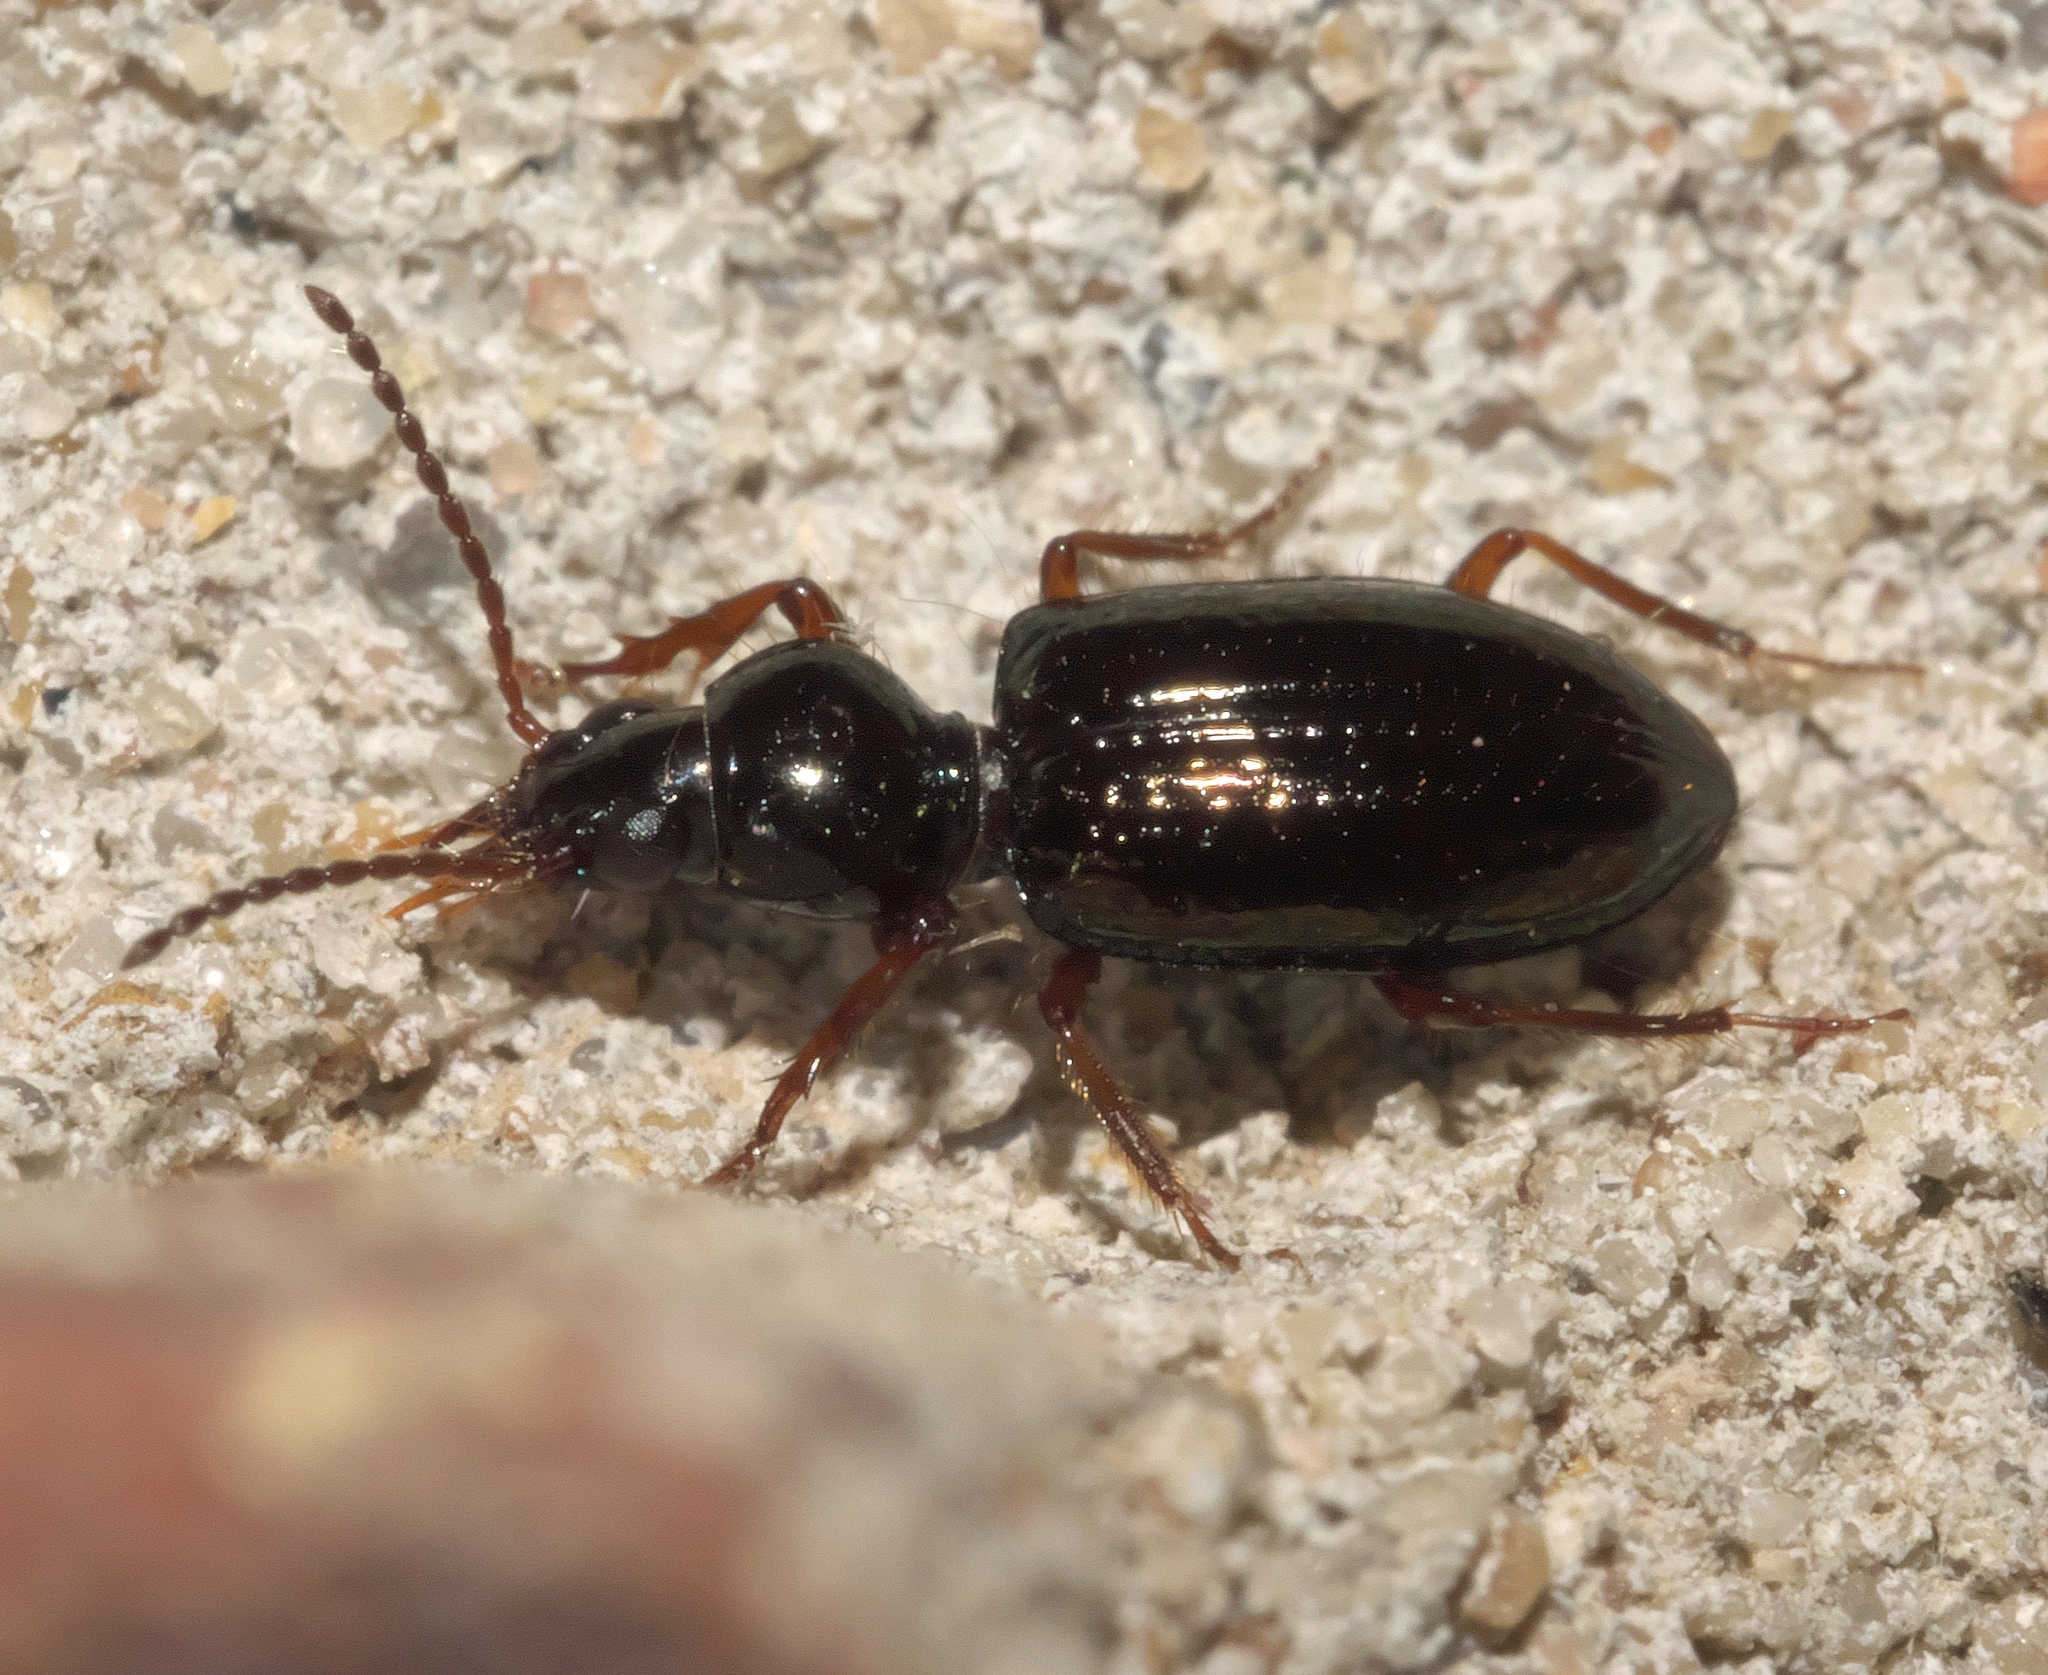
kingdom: Animalia
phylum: Arthropoda
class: Insecta
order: Coleoptera
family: Carabidae
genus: Semiardistomis
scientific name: Semiardistomis viridis
